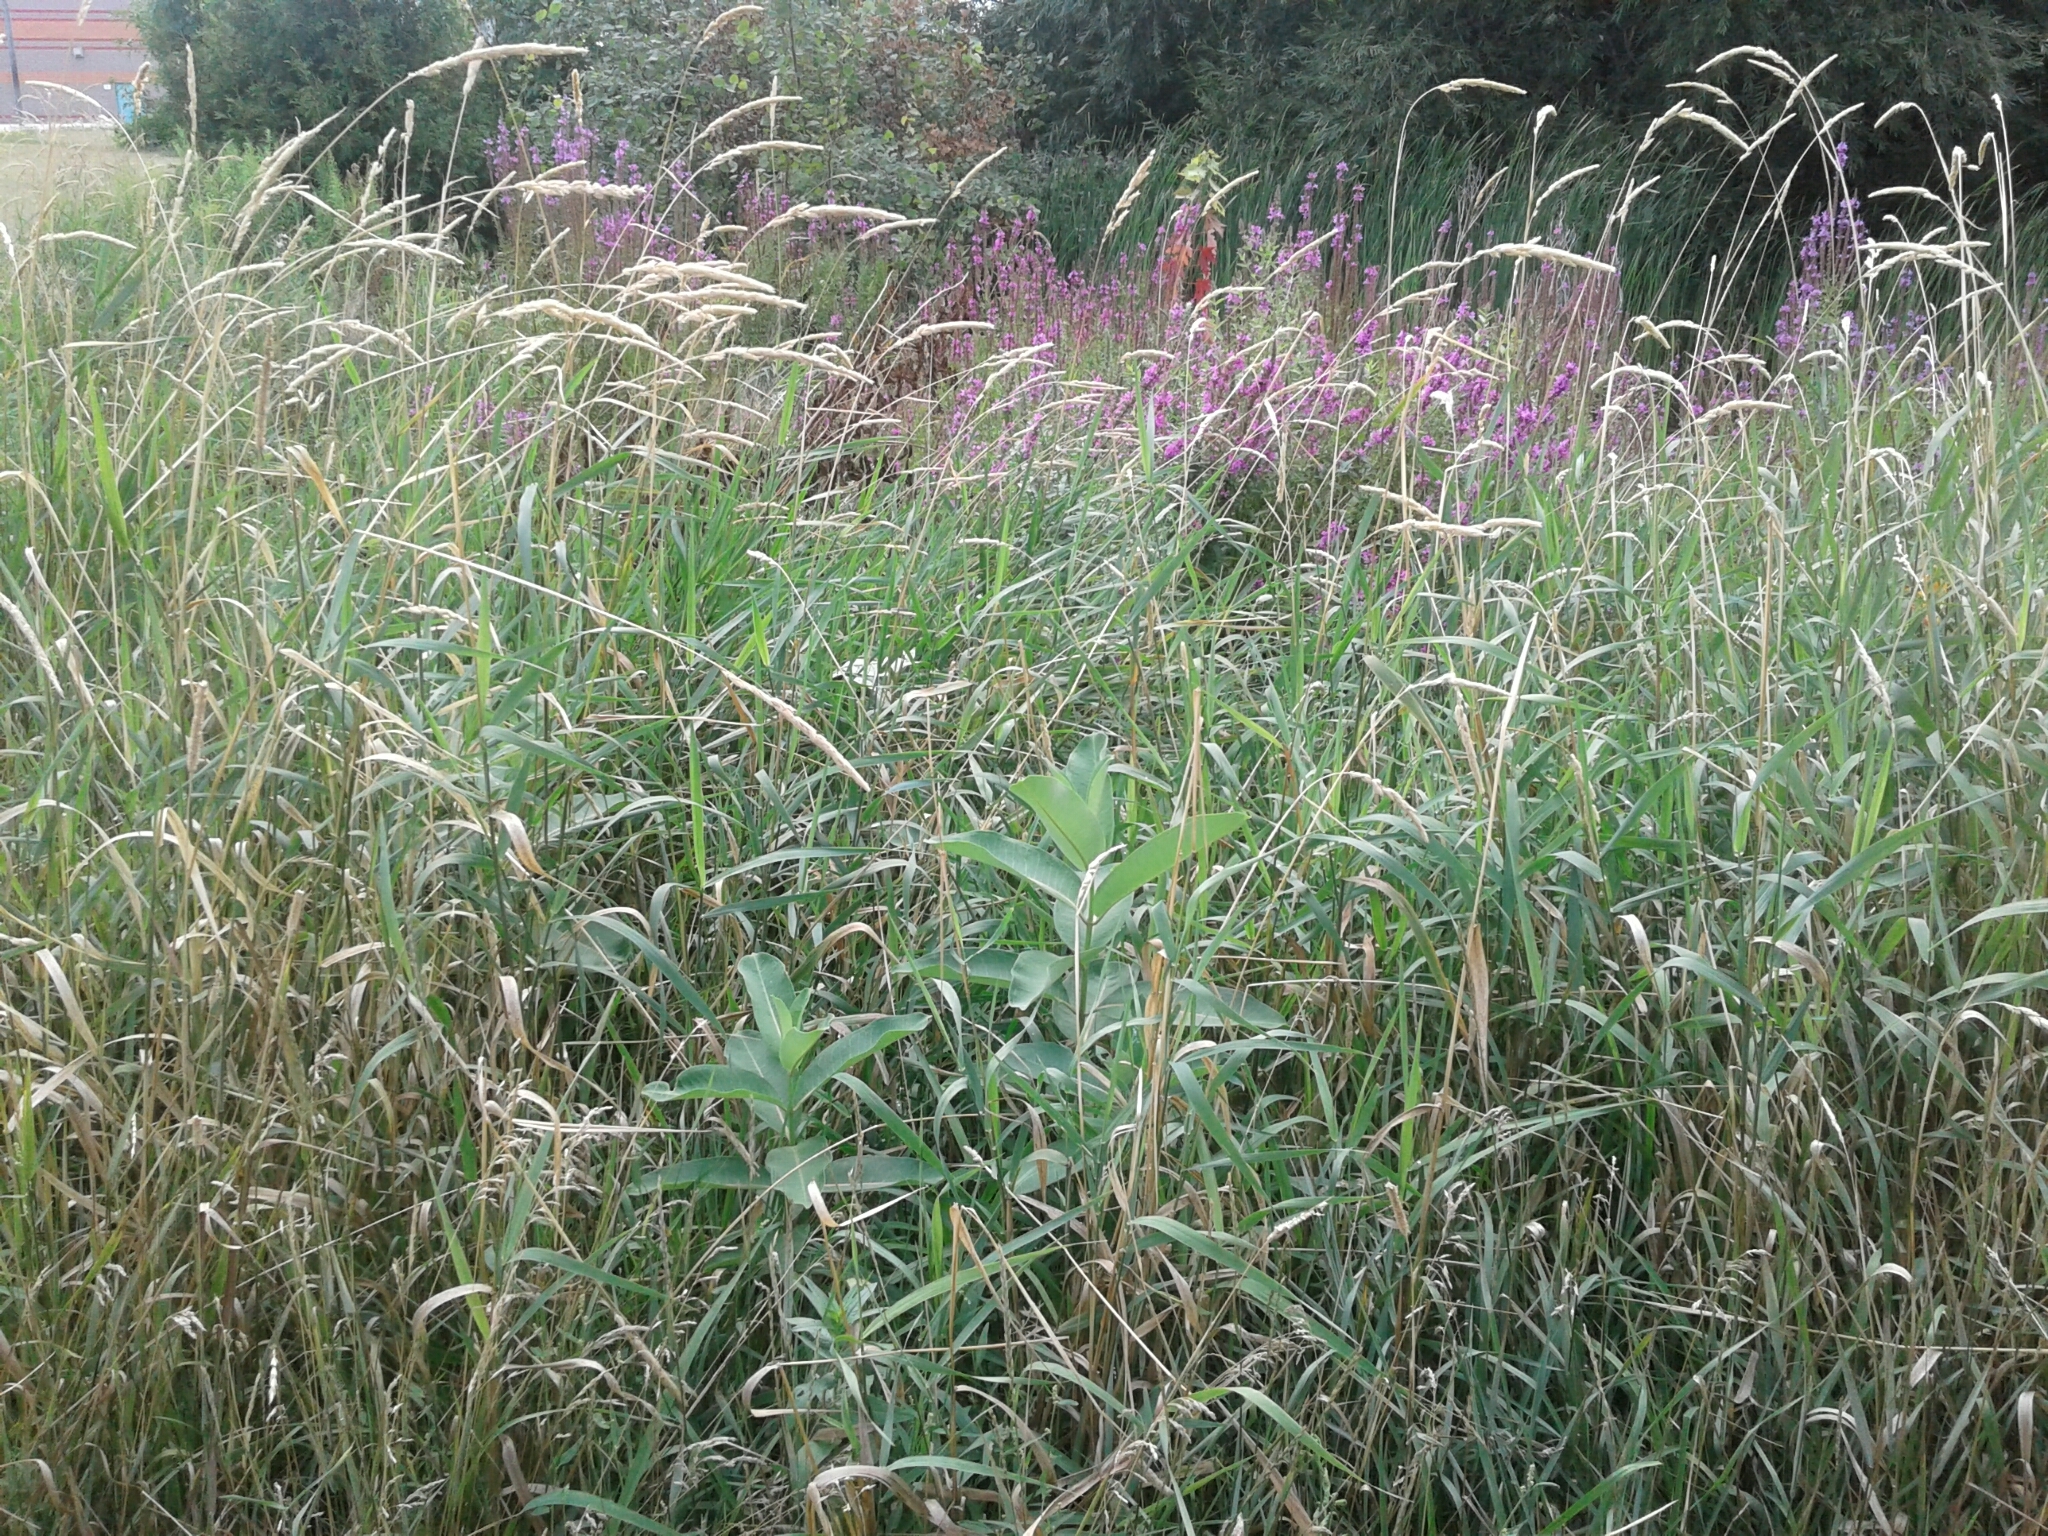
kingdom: Plantae
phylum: Tracheophyta
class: Magnoliopsida
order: Gentianales
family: Apocynaceae
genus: Asclepias
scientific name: Asclepias syriaca
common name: Common milkweed
